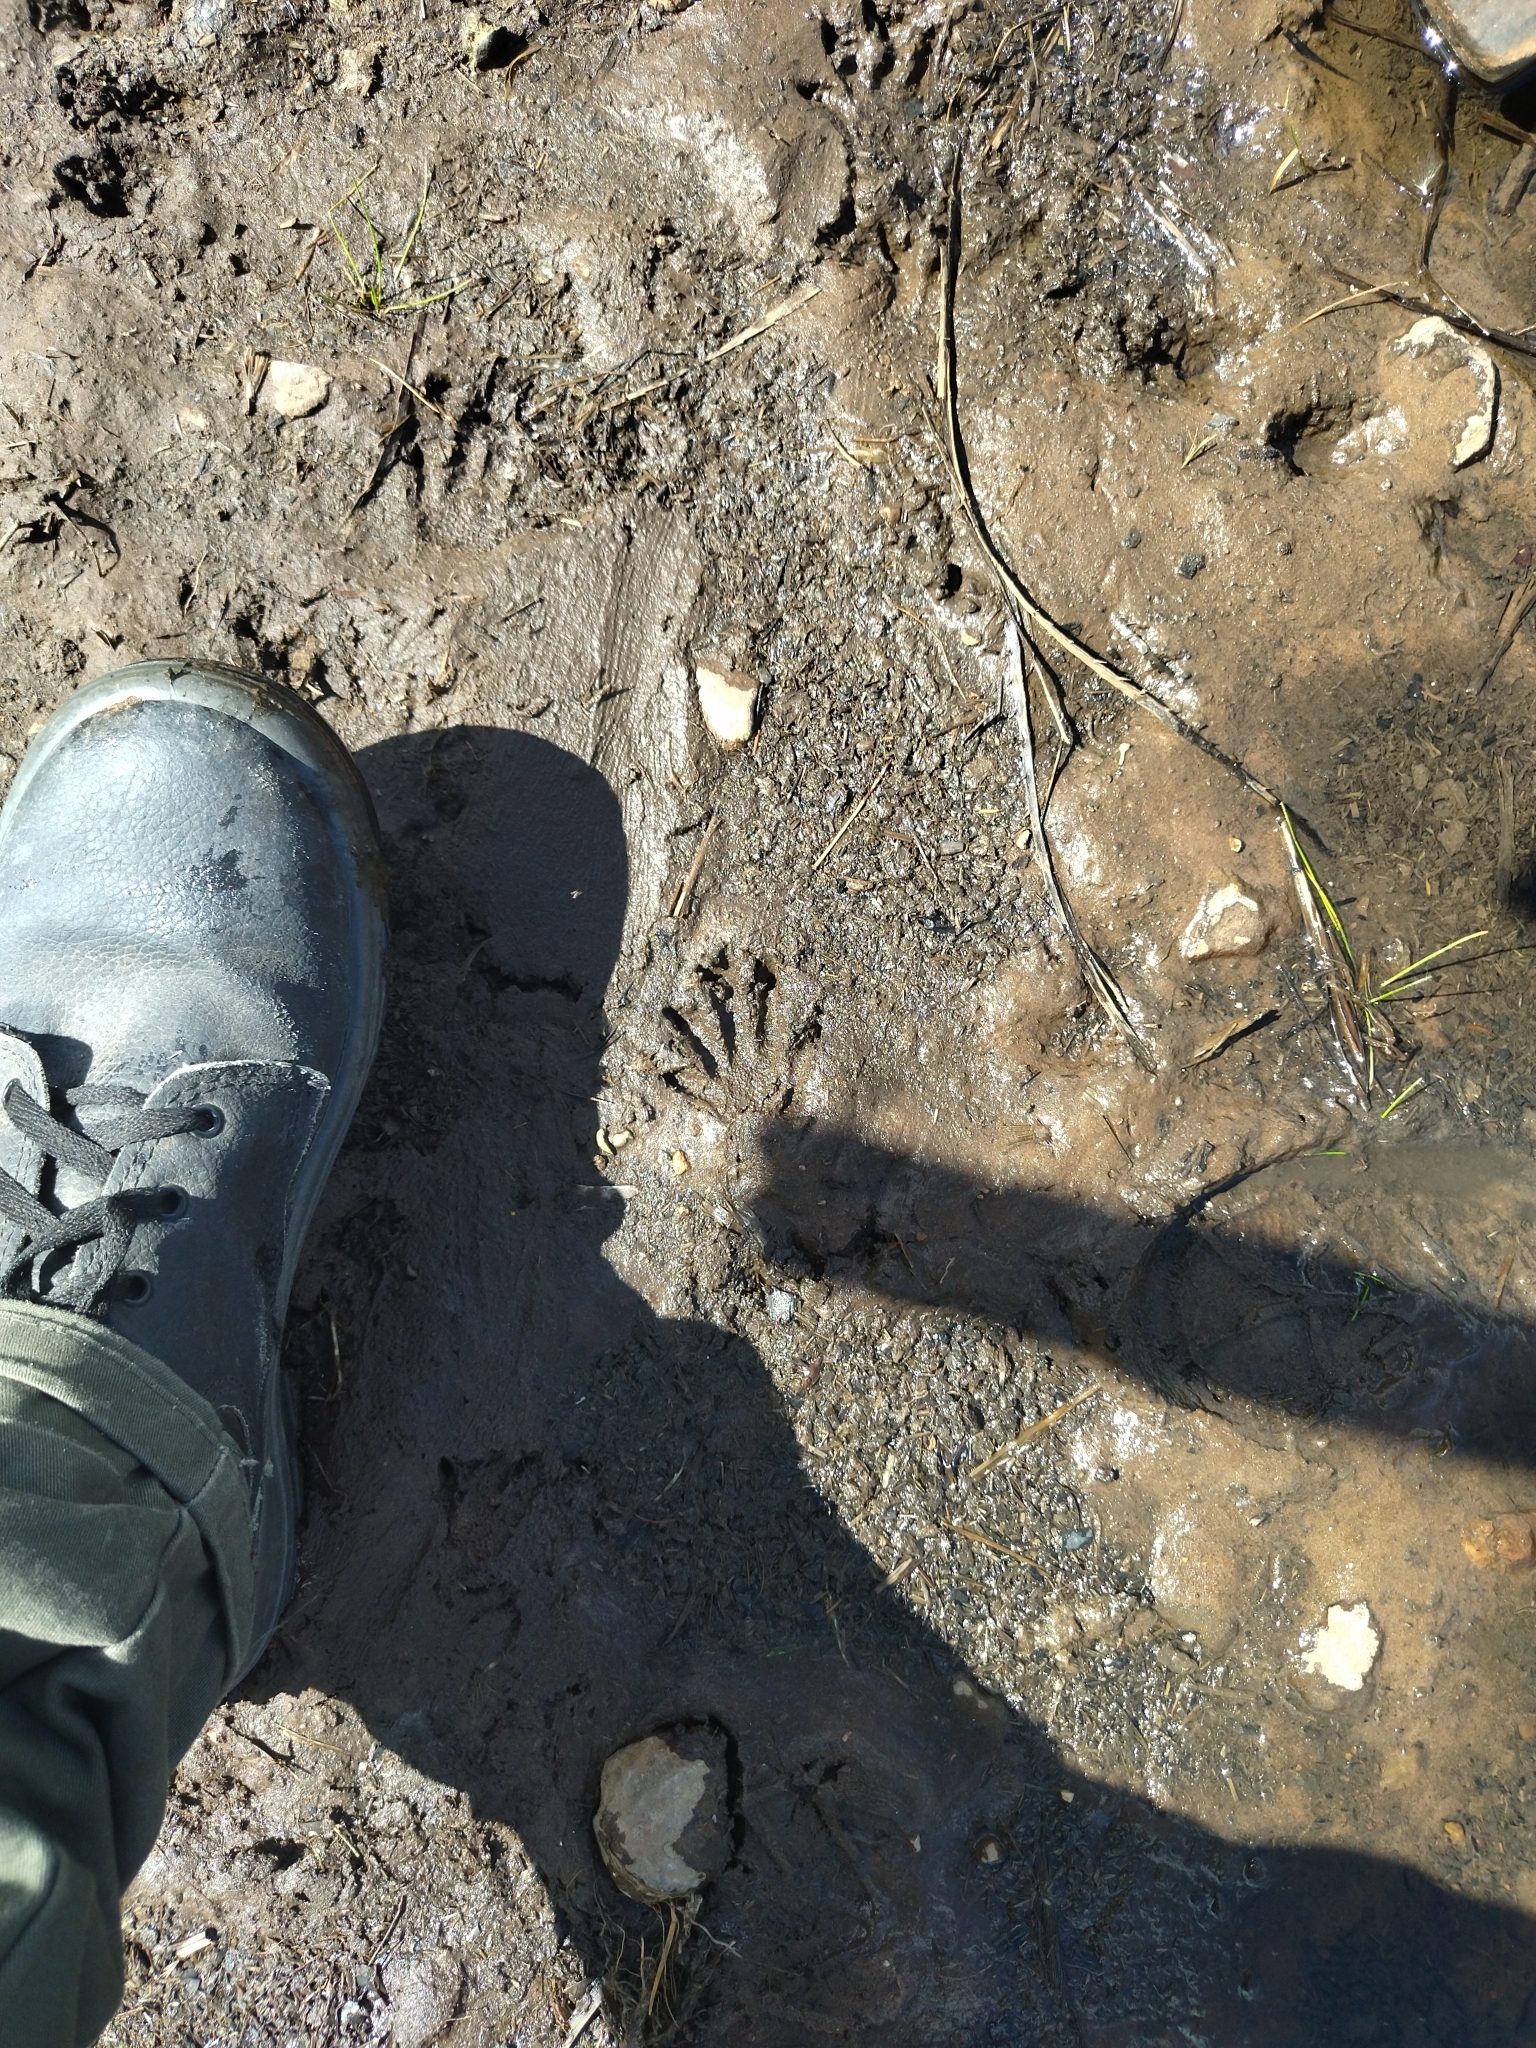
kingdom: Animalia
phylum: Chordata
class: Mammalia
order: Carnivora
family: Procyonidae
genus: Procyon
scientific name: Procyon cancrivorus
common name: Crab-eating raccoon
